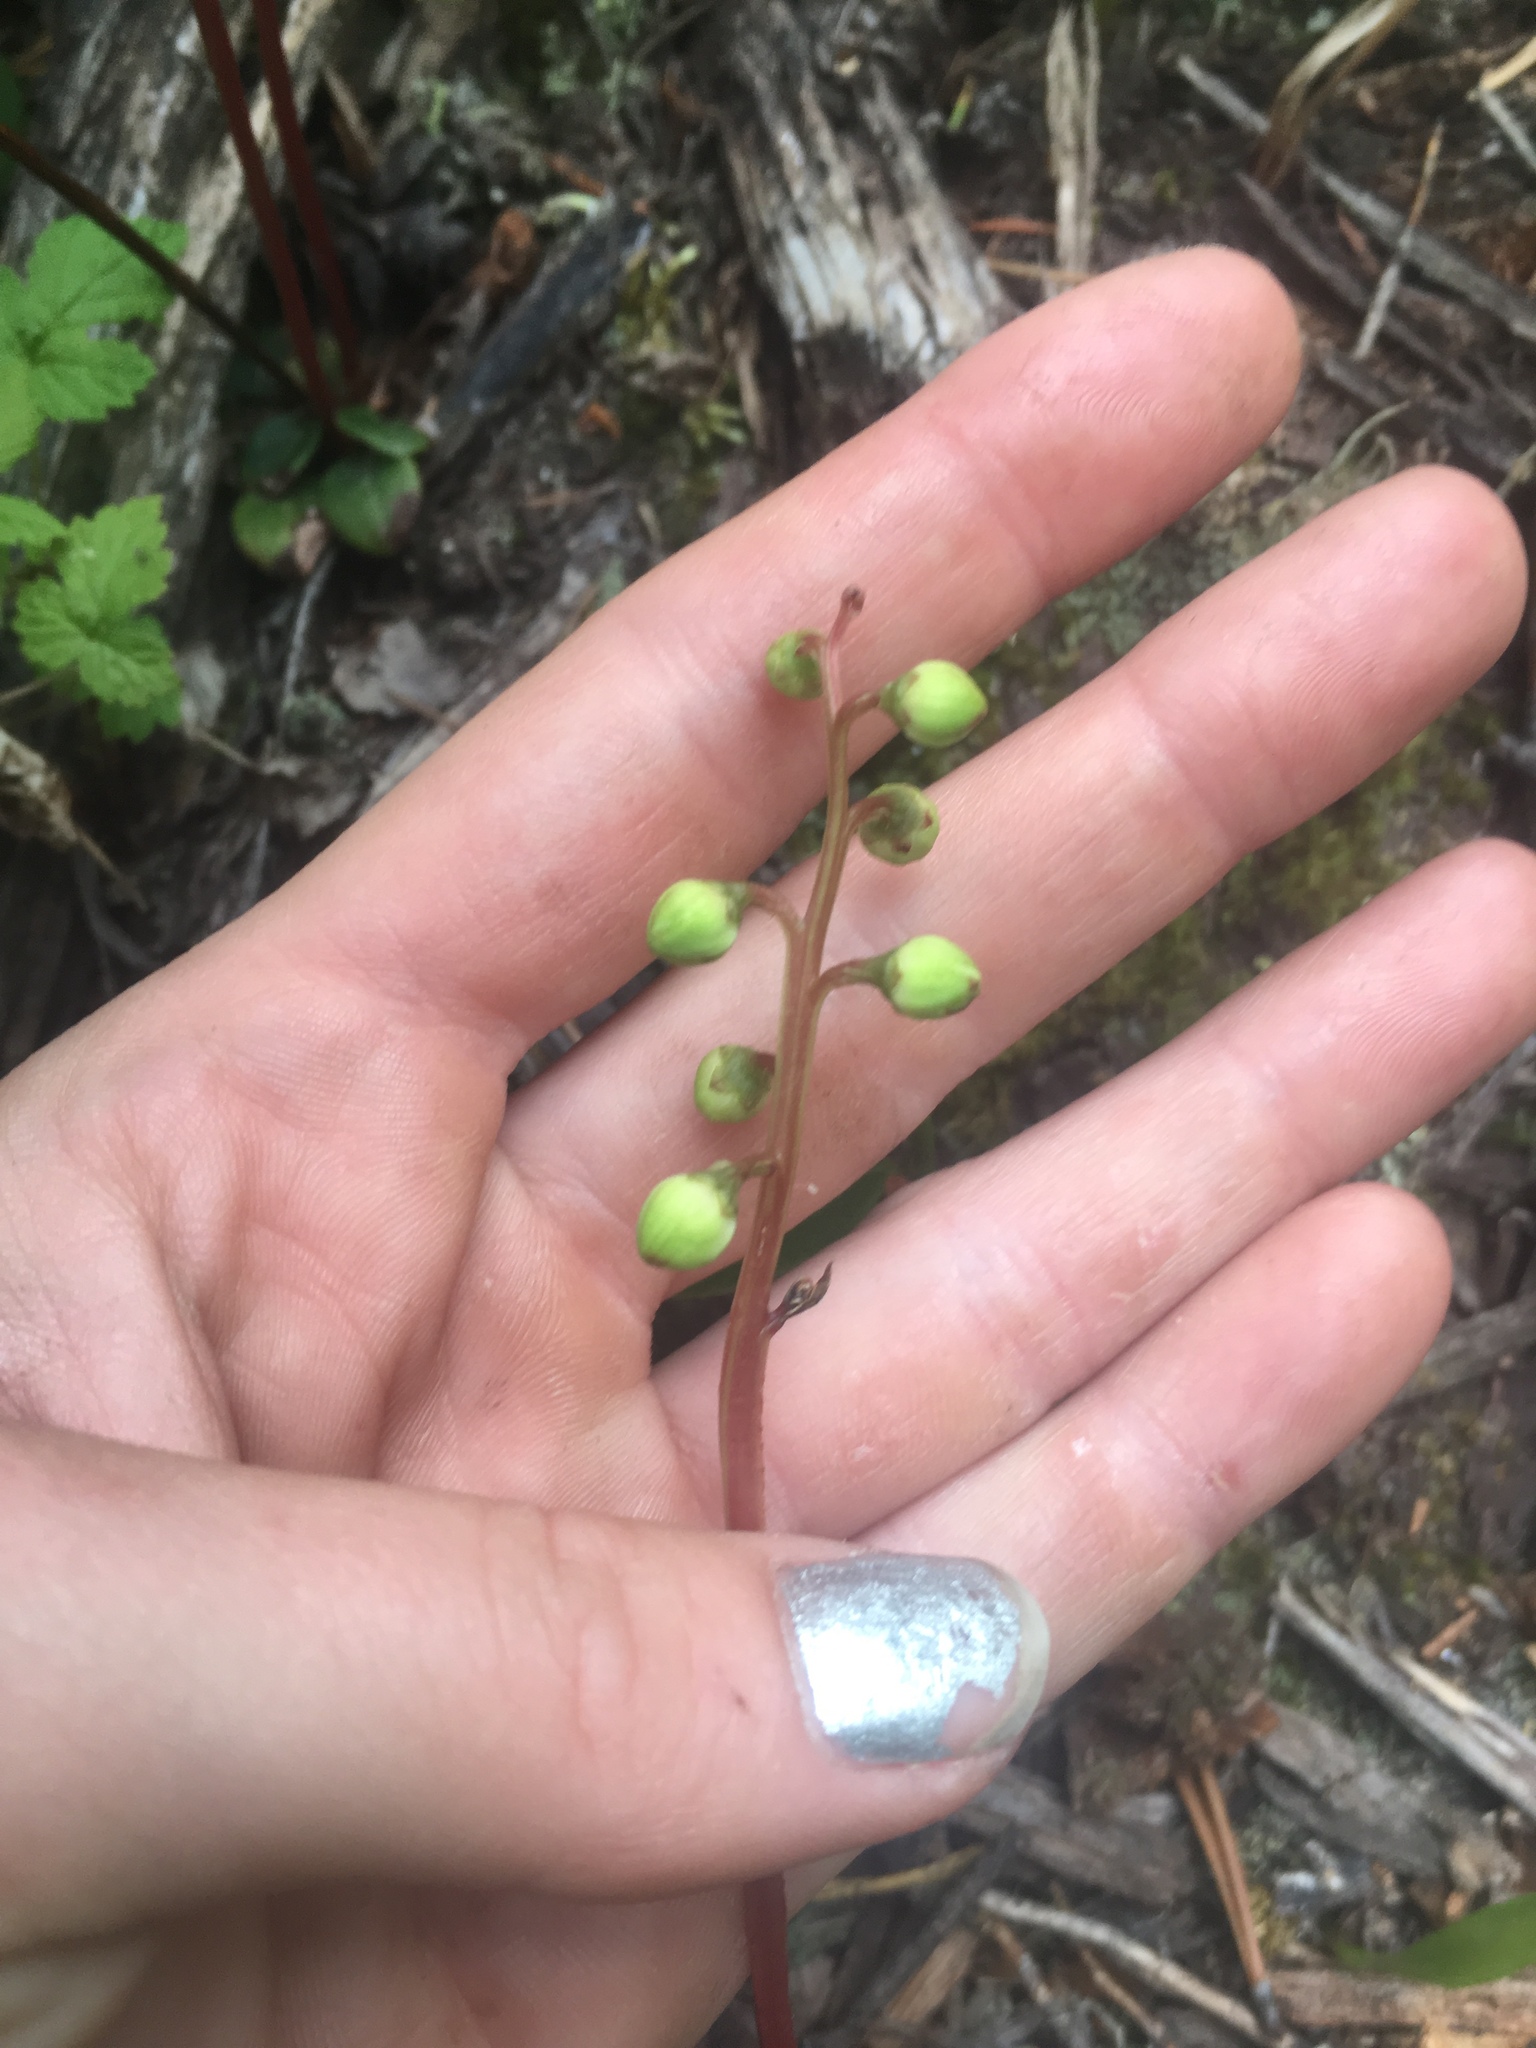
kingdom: Plantae
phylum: Tracheophyta
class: Magnoliopsida
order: Ericales
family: Ericaceae
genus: Pyrola
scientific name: Pyrola chlorantha
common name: Green wintergreen
